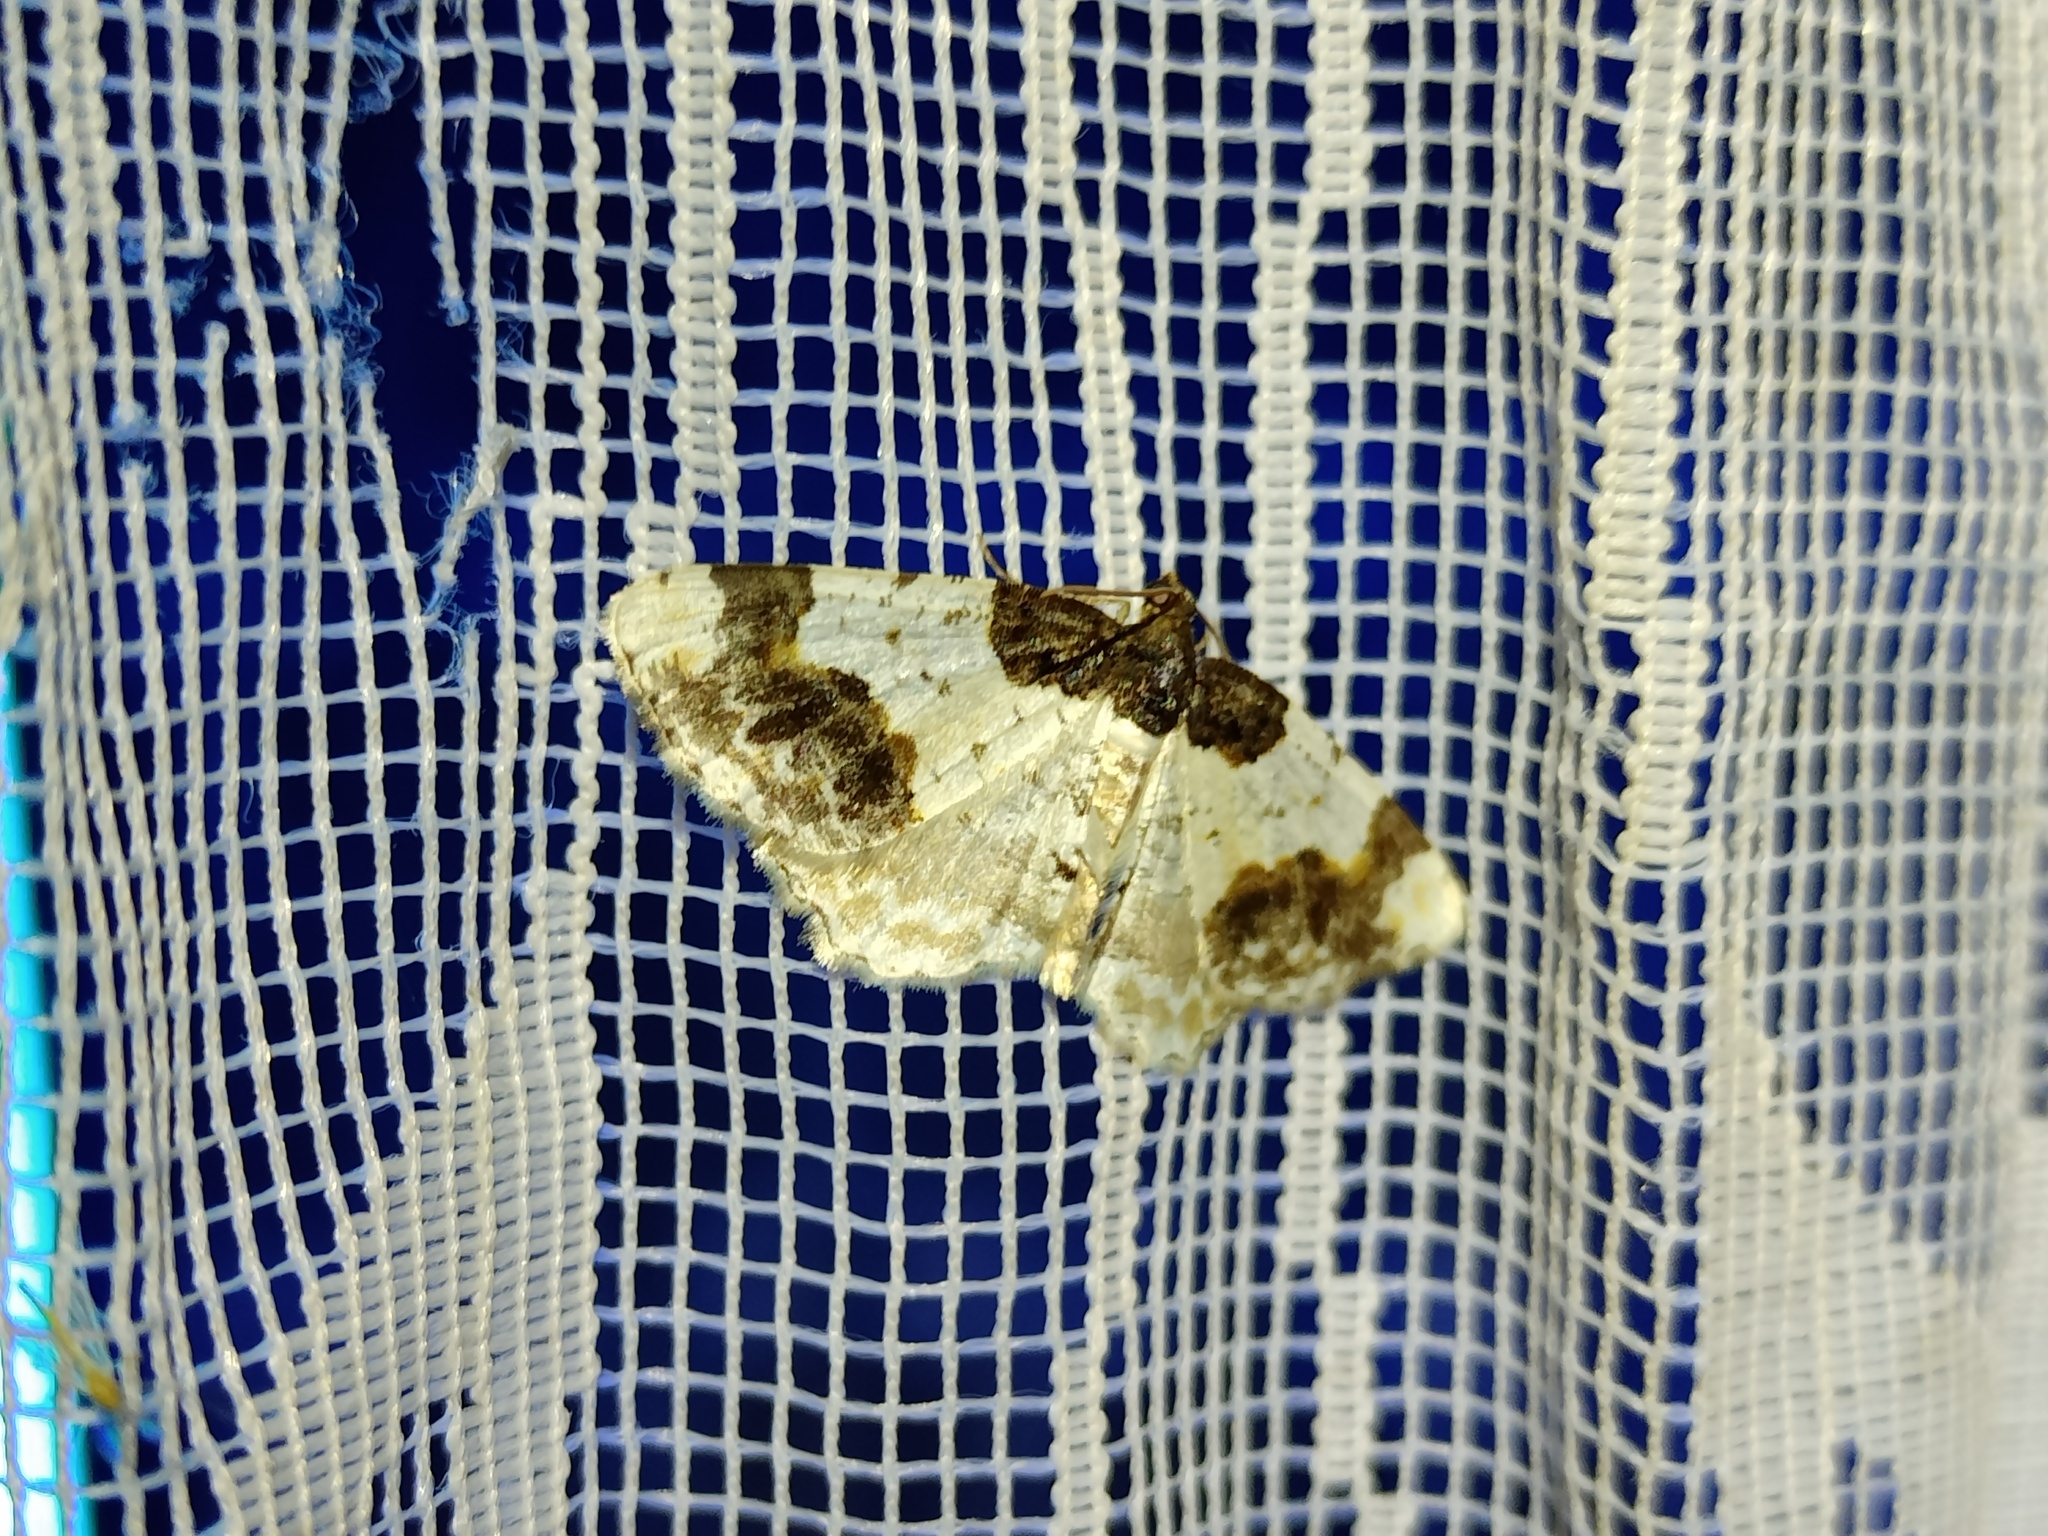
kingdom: Animalia
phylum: Arthropoda
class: Insecta
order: Lepidoptera
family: Geometridae
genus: Ligdia
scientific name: Ligdia adustata
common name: Scorched carpet
